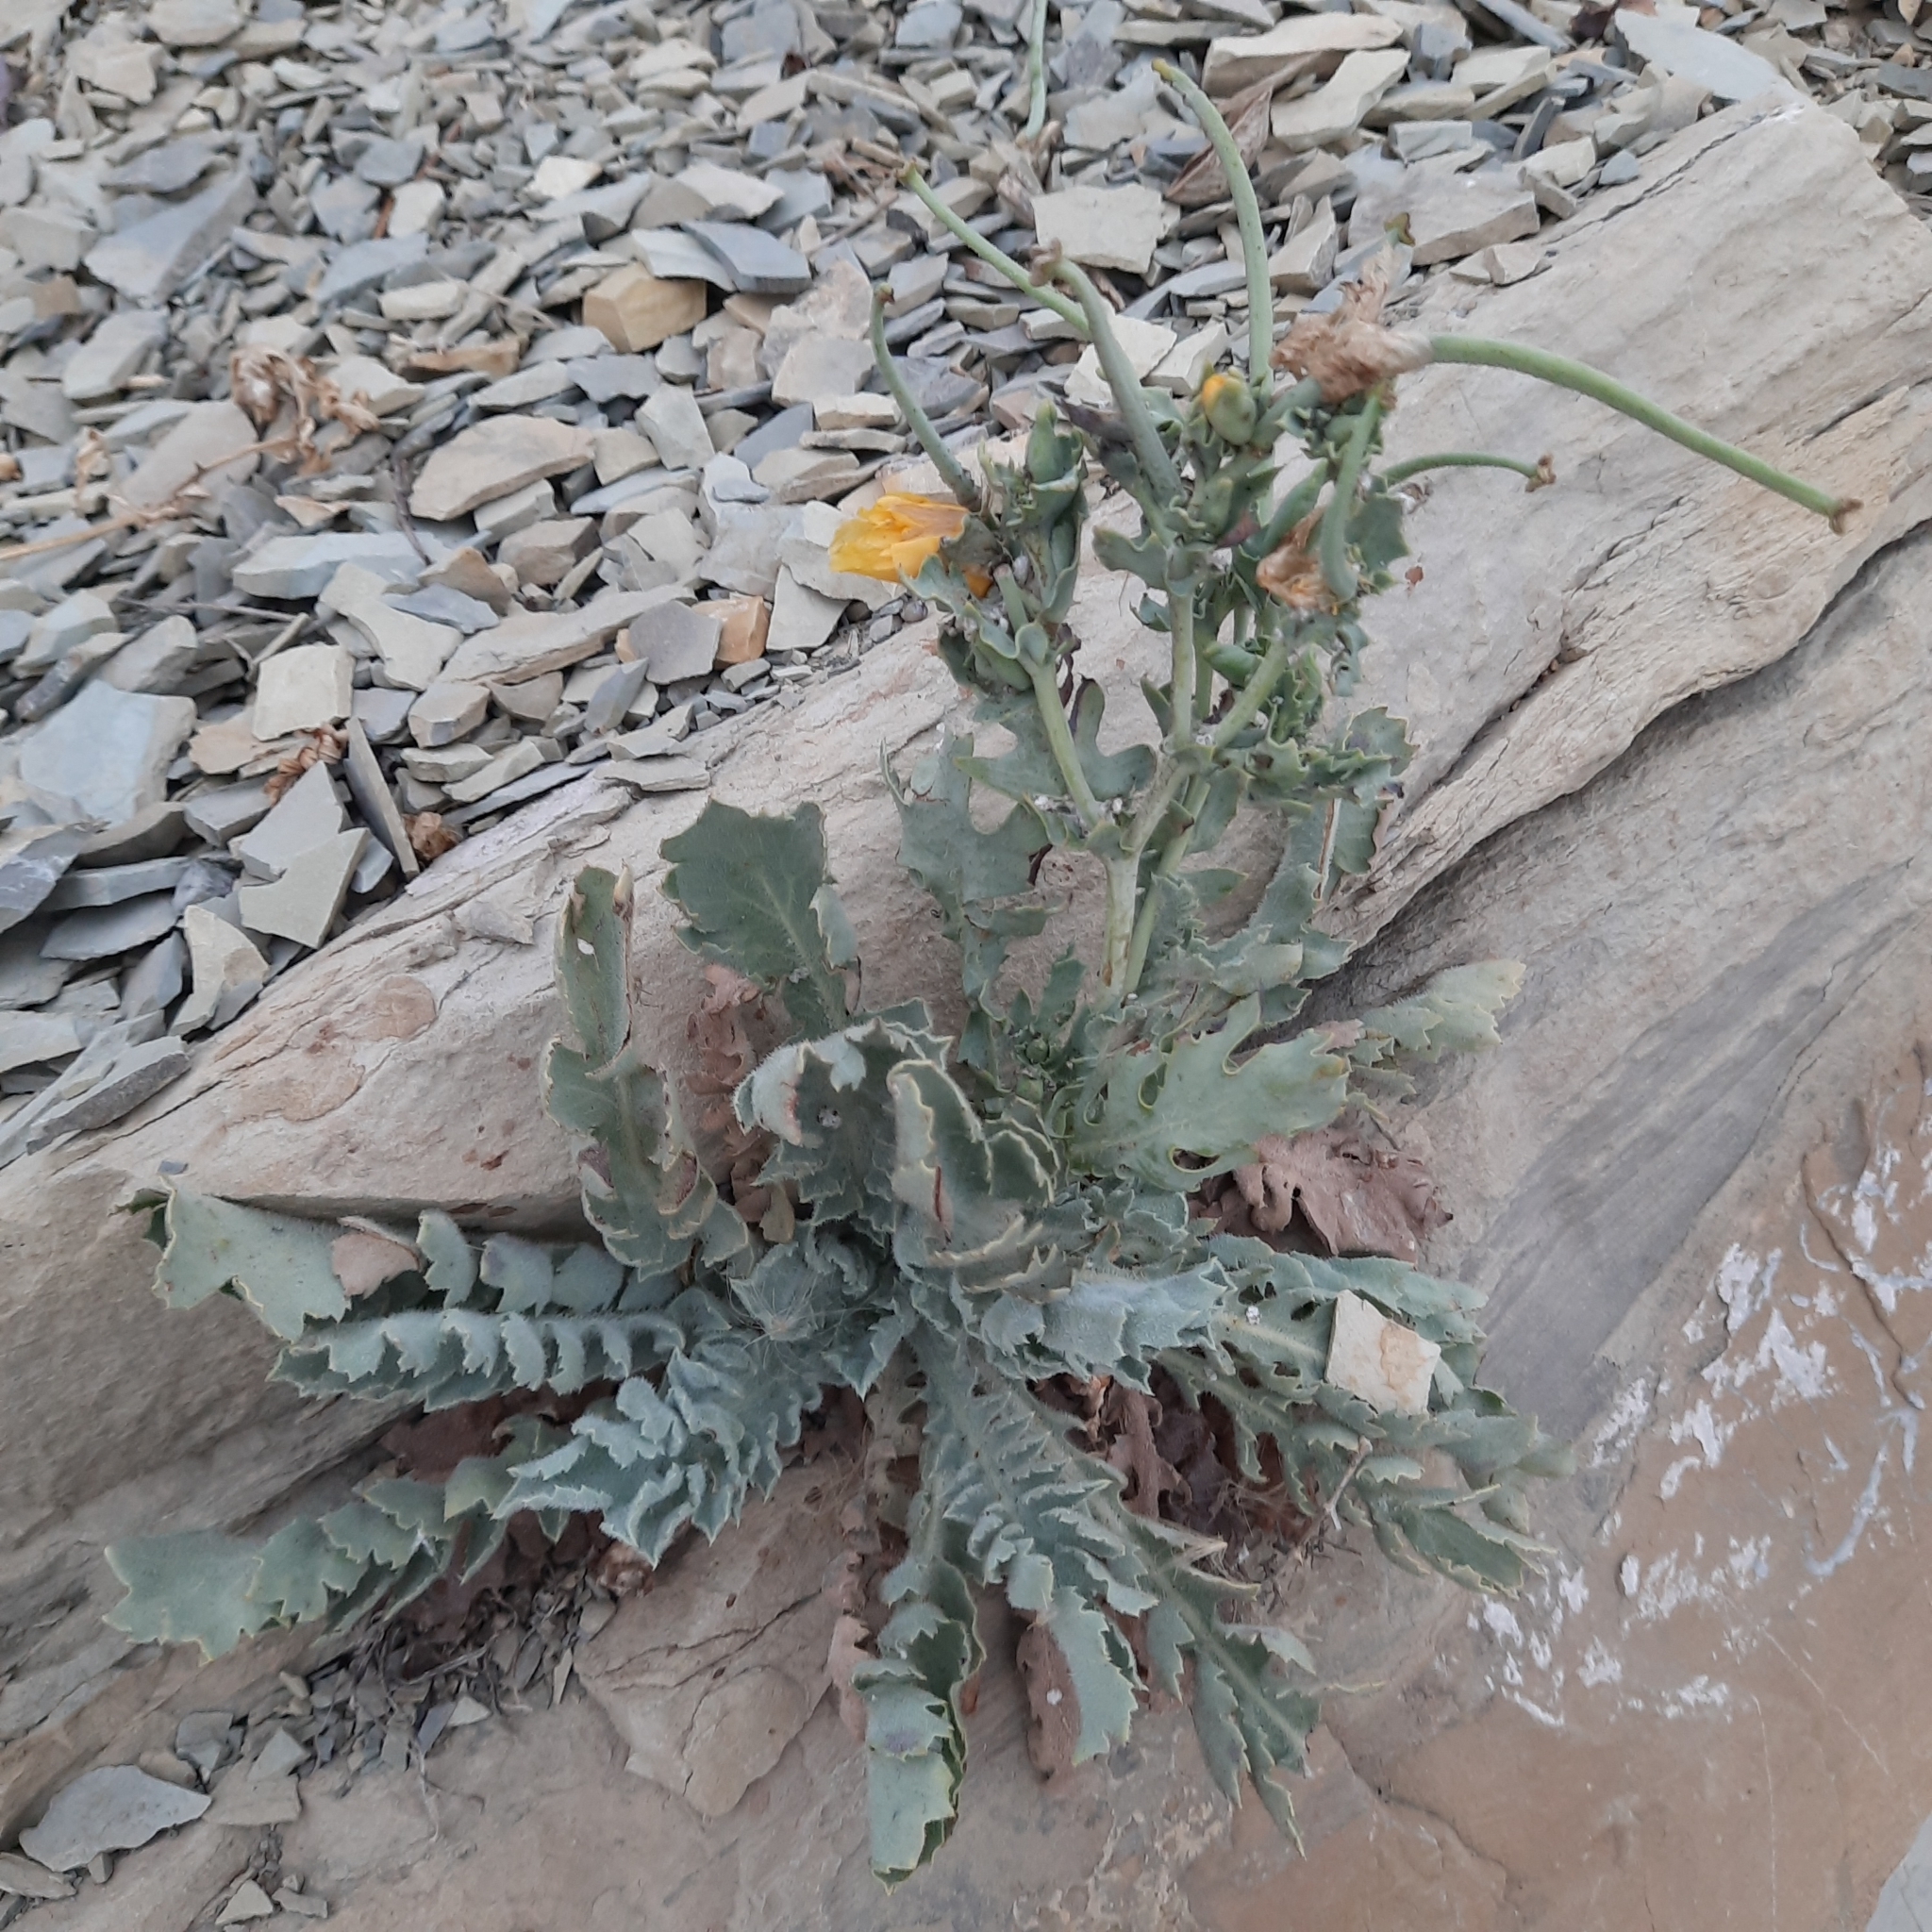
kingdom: Plantae
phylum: Tracheophyta
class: Magnoliopsida
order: Ranunculales
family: Papaveraceae
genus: Glaucium
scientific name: Glaucium flavum
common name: Yellow horned-poppy
